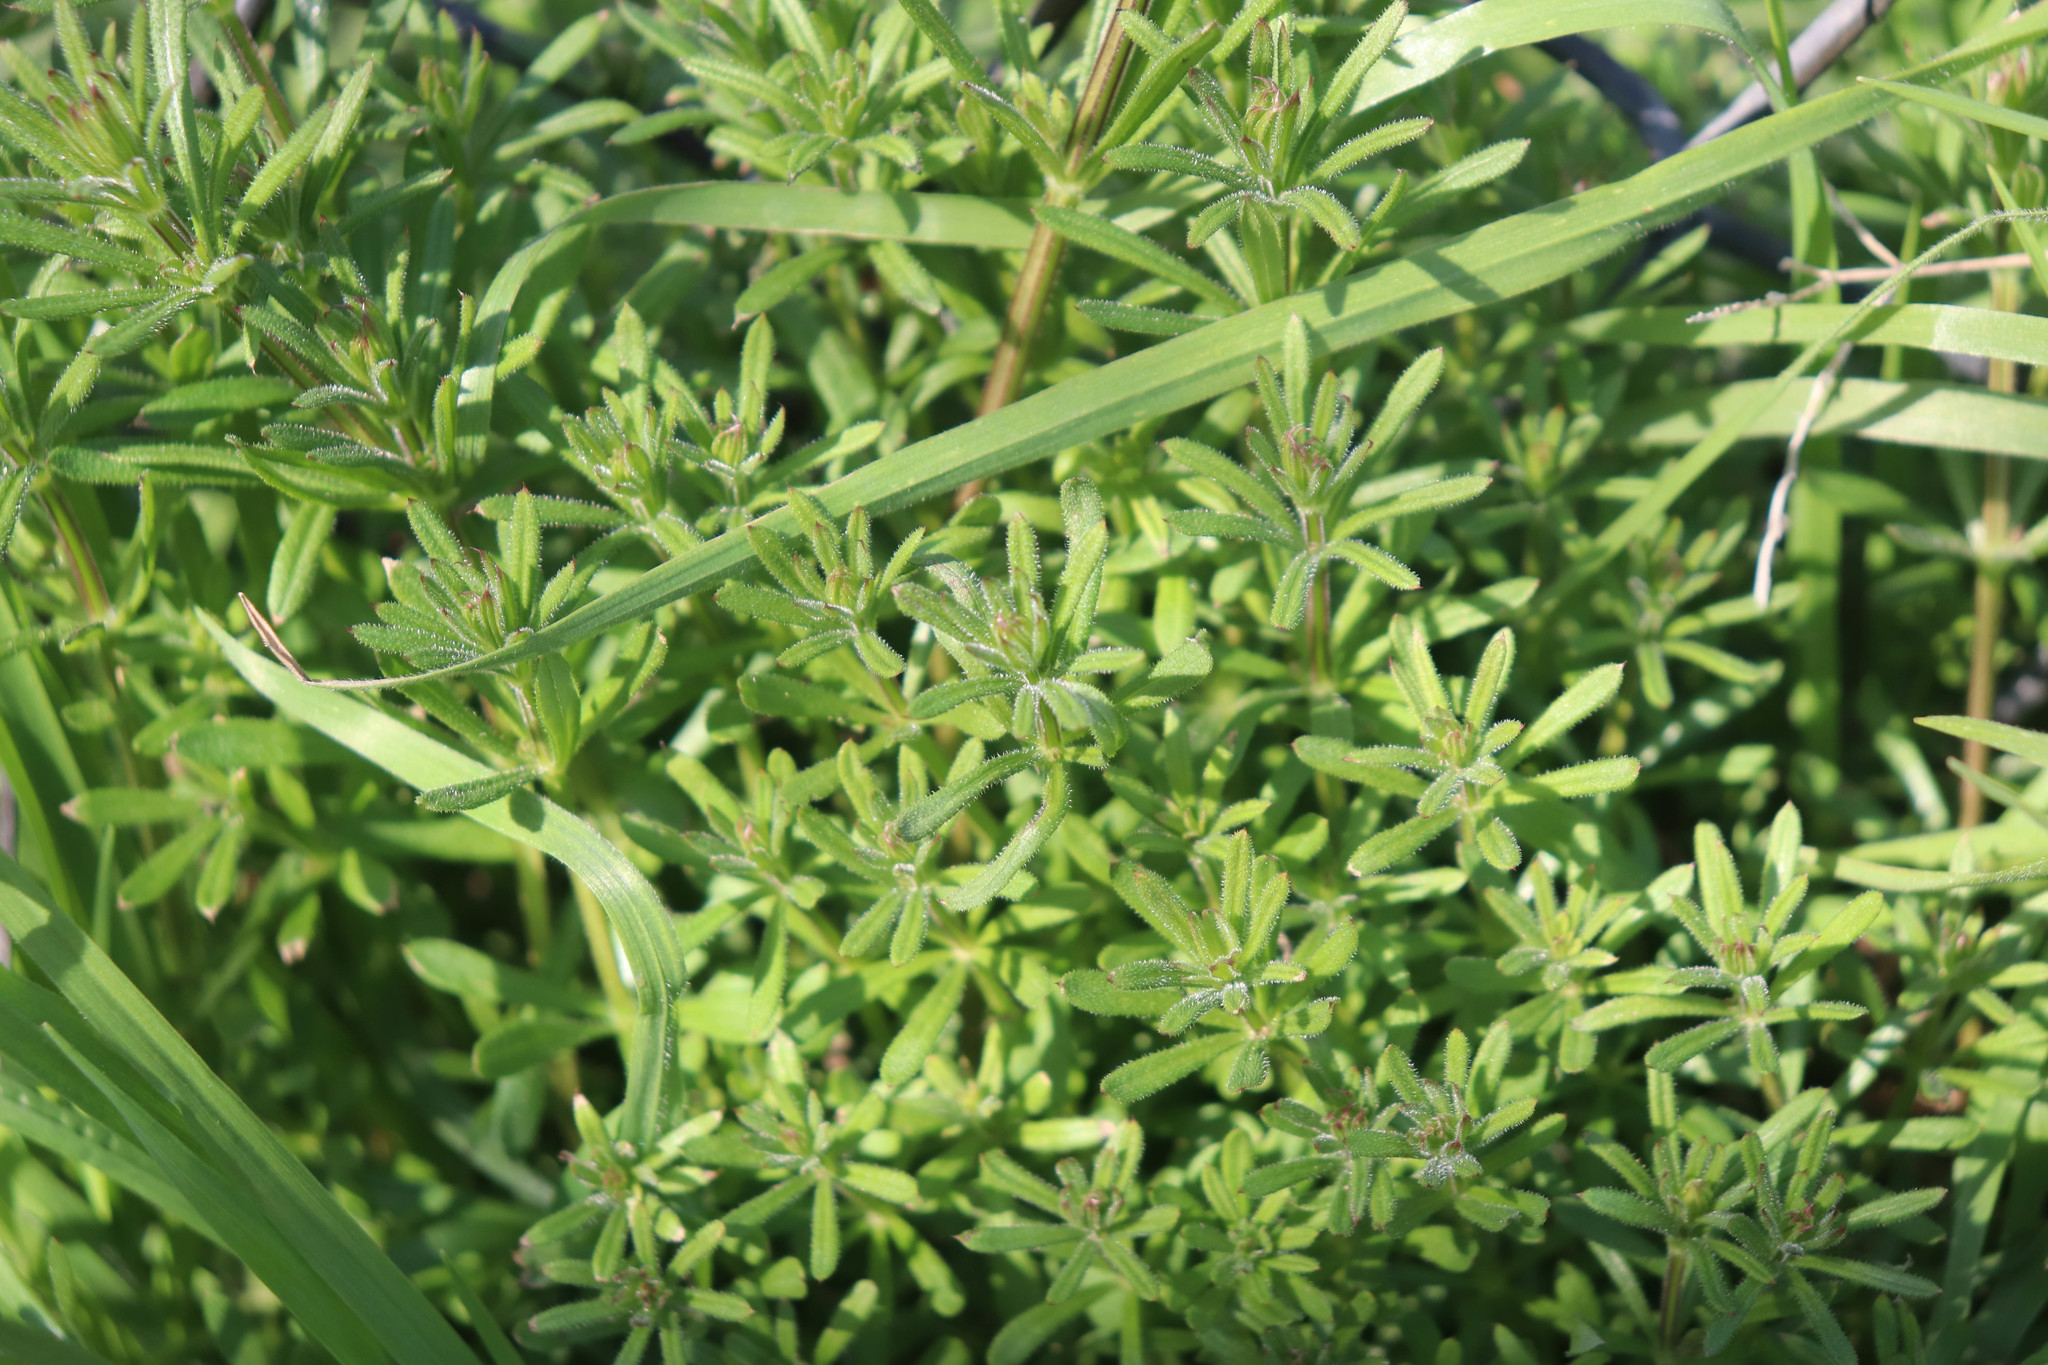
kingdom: Plantae
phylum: Tracheophyta
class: Magnoliopsida
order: Gentianales
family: Rubiaceae
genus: Galium
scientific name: Galium aparine
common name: Cleavers
